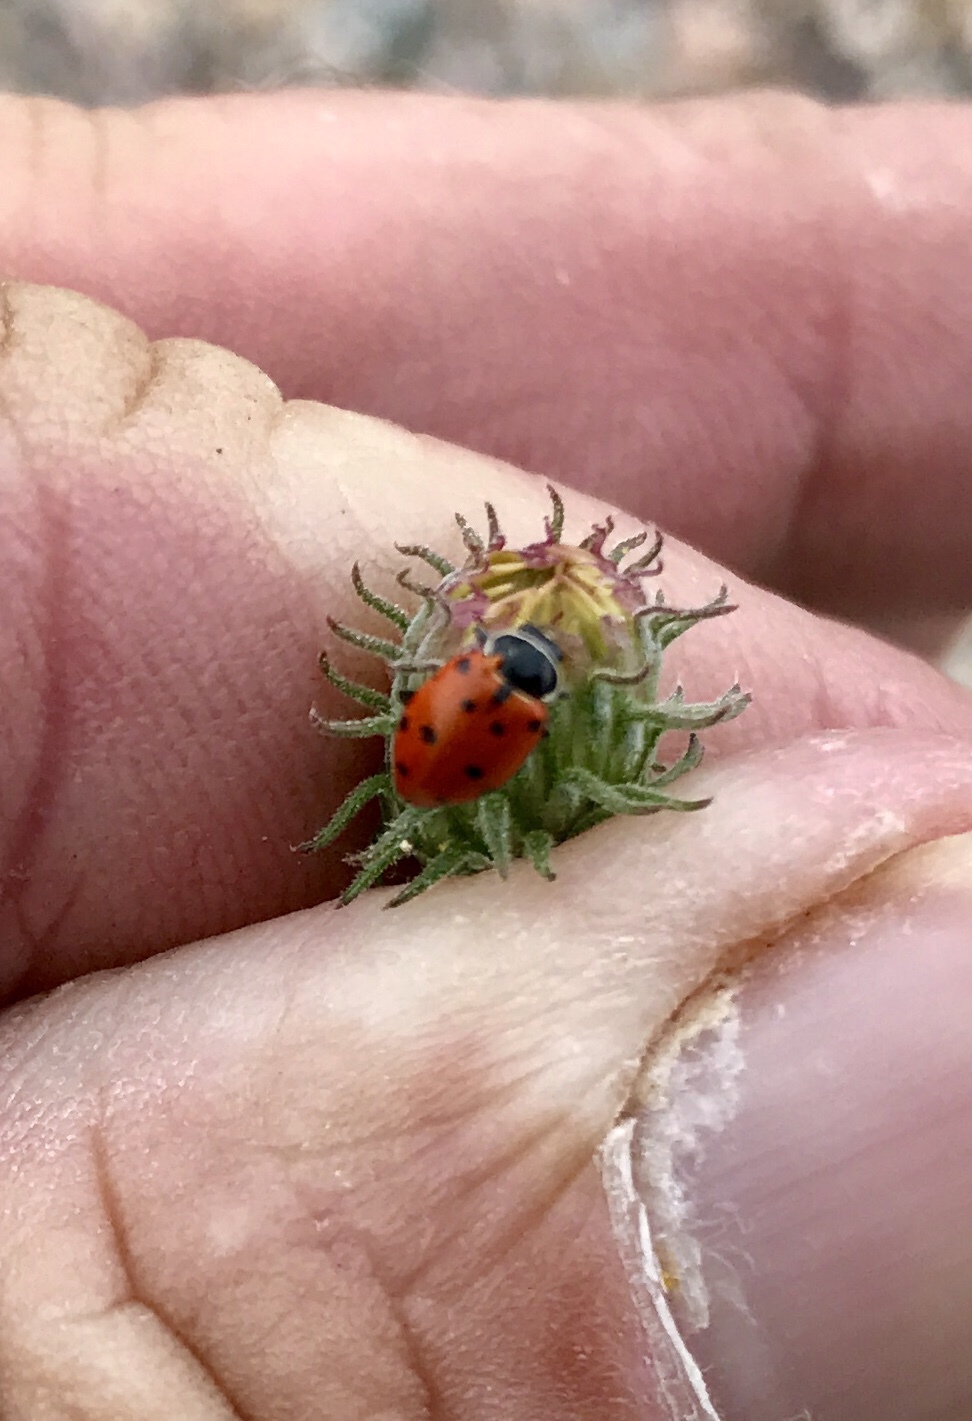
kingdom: Animalia
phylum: Arthropoda
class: Insecta
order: Coleoptera
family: Coccinellidae
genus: Hippodamia
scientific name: Hippodamia convergens
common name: Convergent lady beetle
